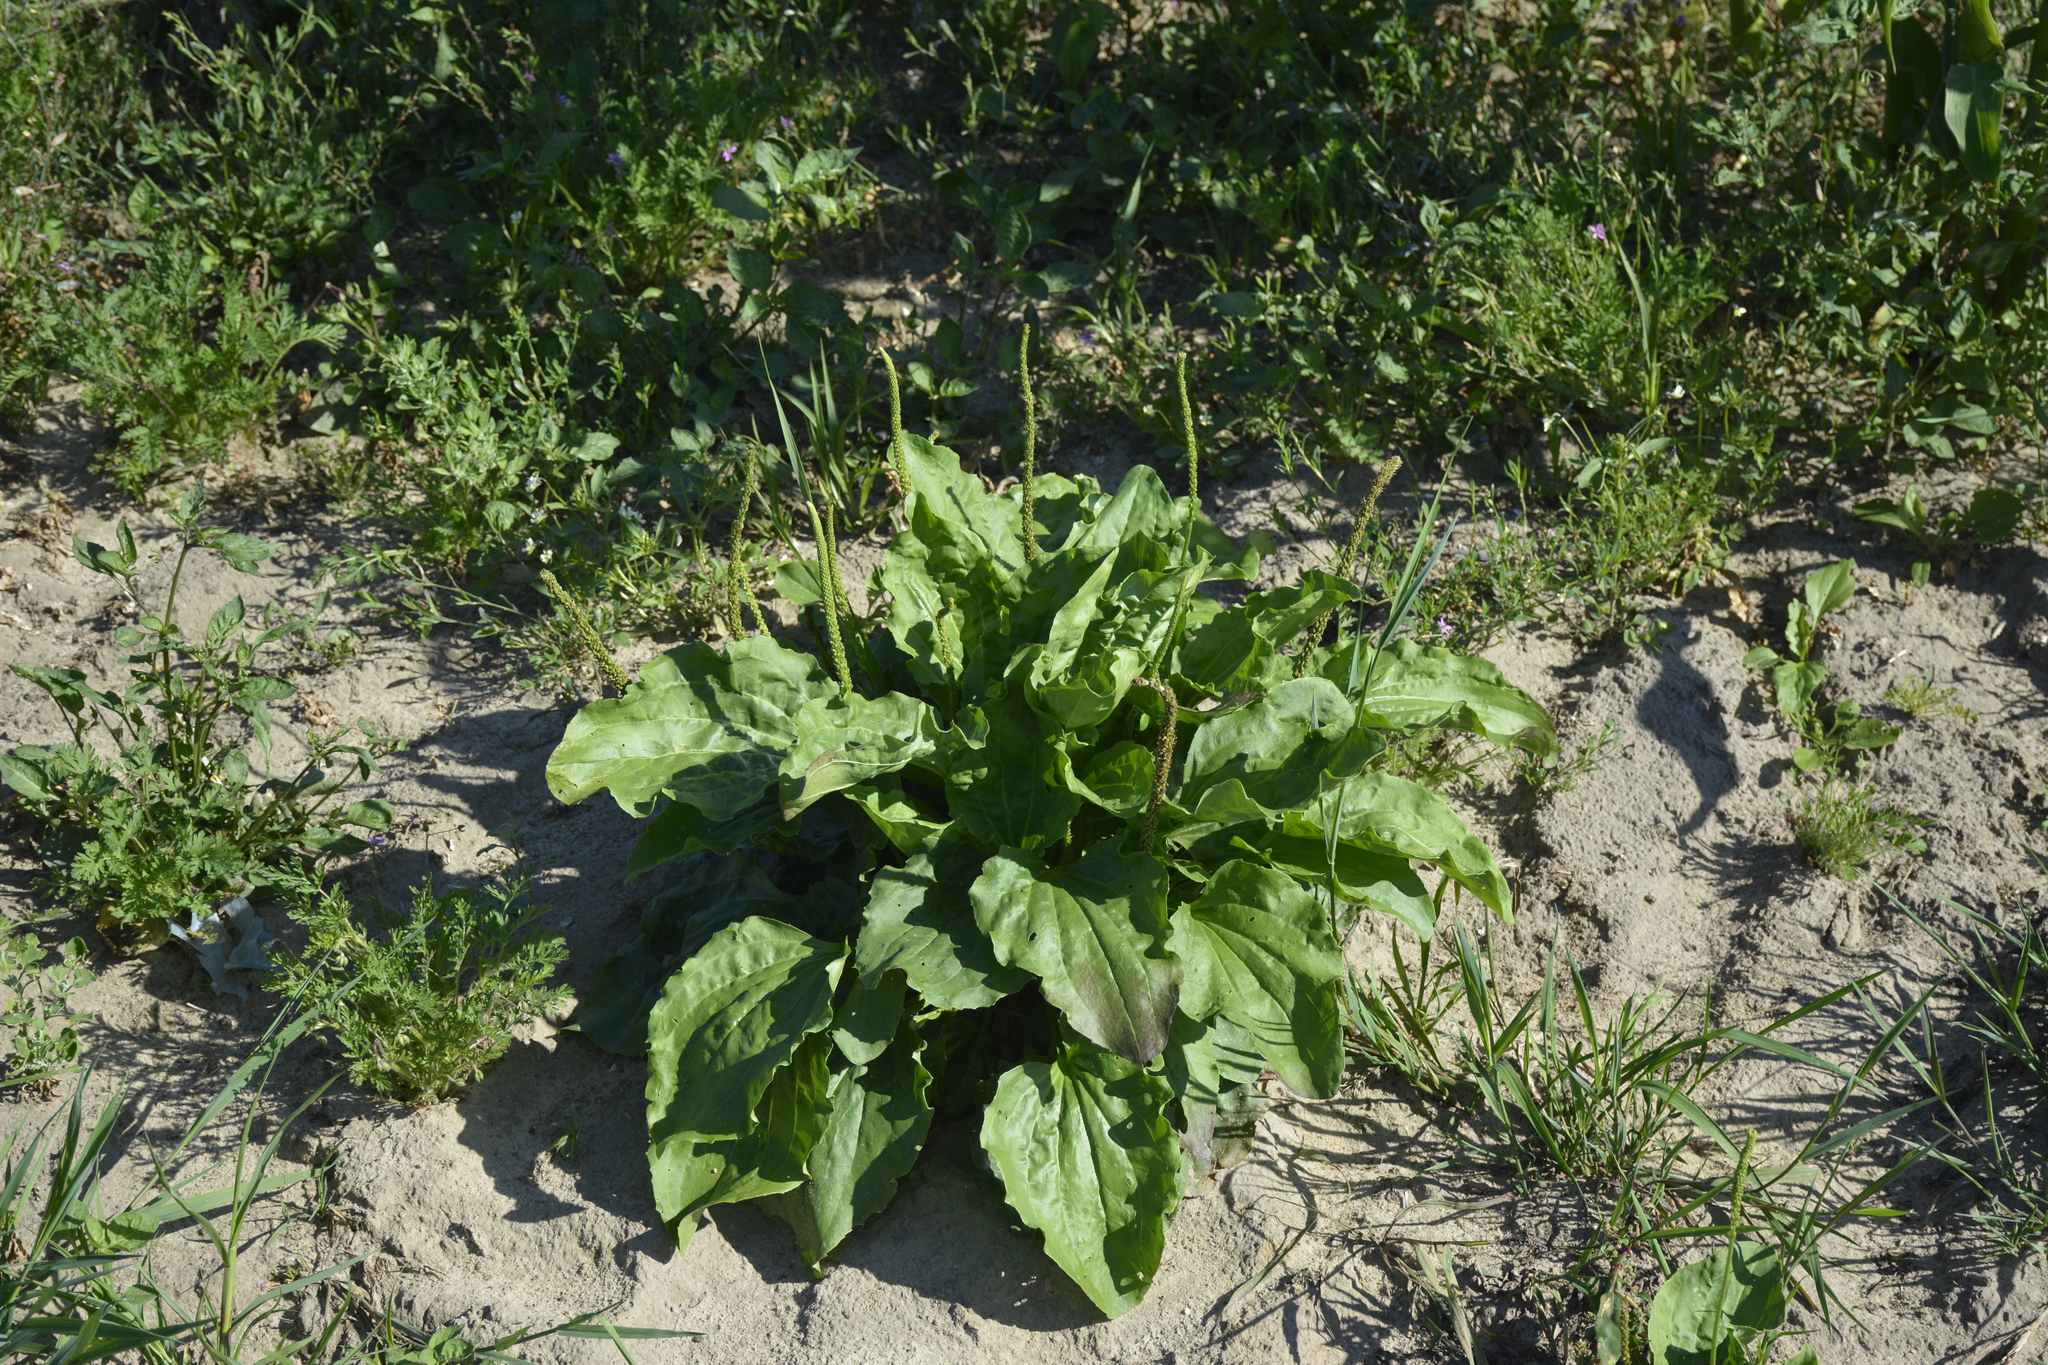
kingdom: Plantae
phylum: Tracheophyta
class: Magnoliopsida
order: Lamiales
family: Plantaginaceae
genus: Plantago
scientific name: Plantago major
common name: Common plantain
